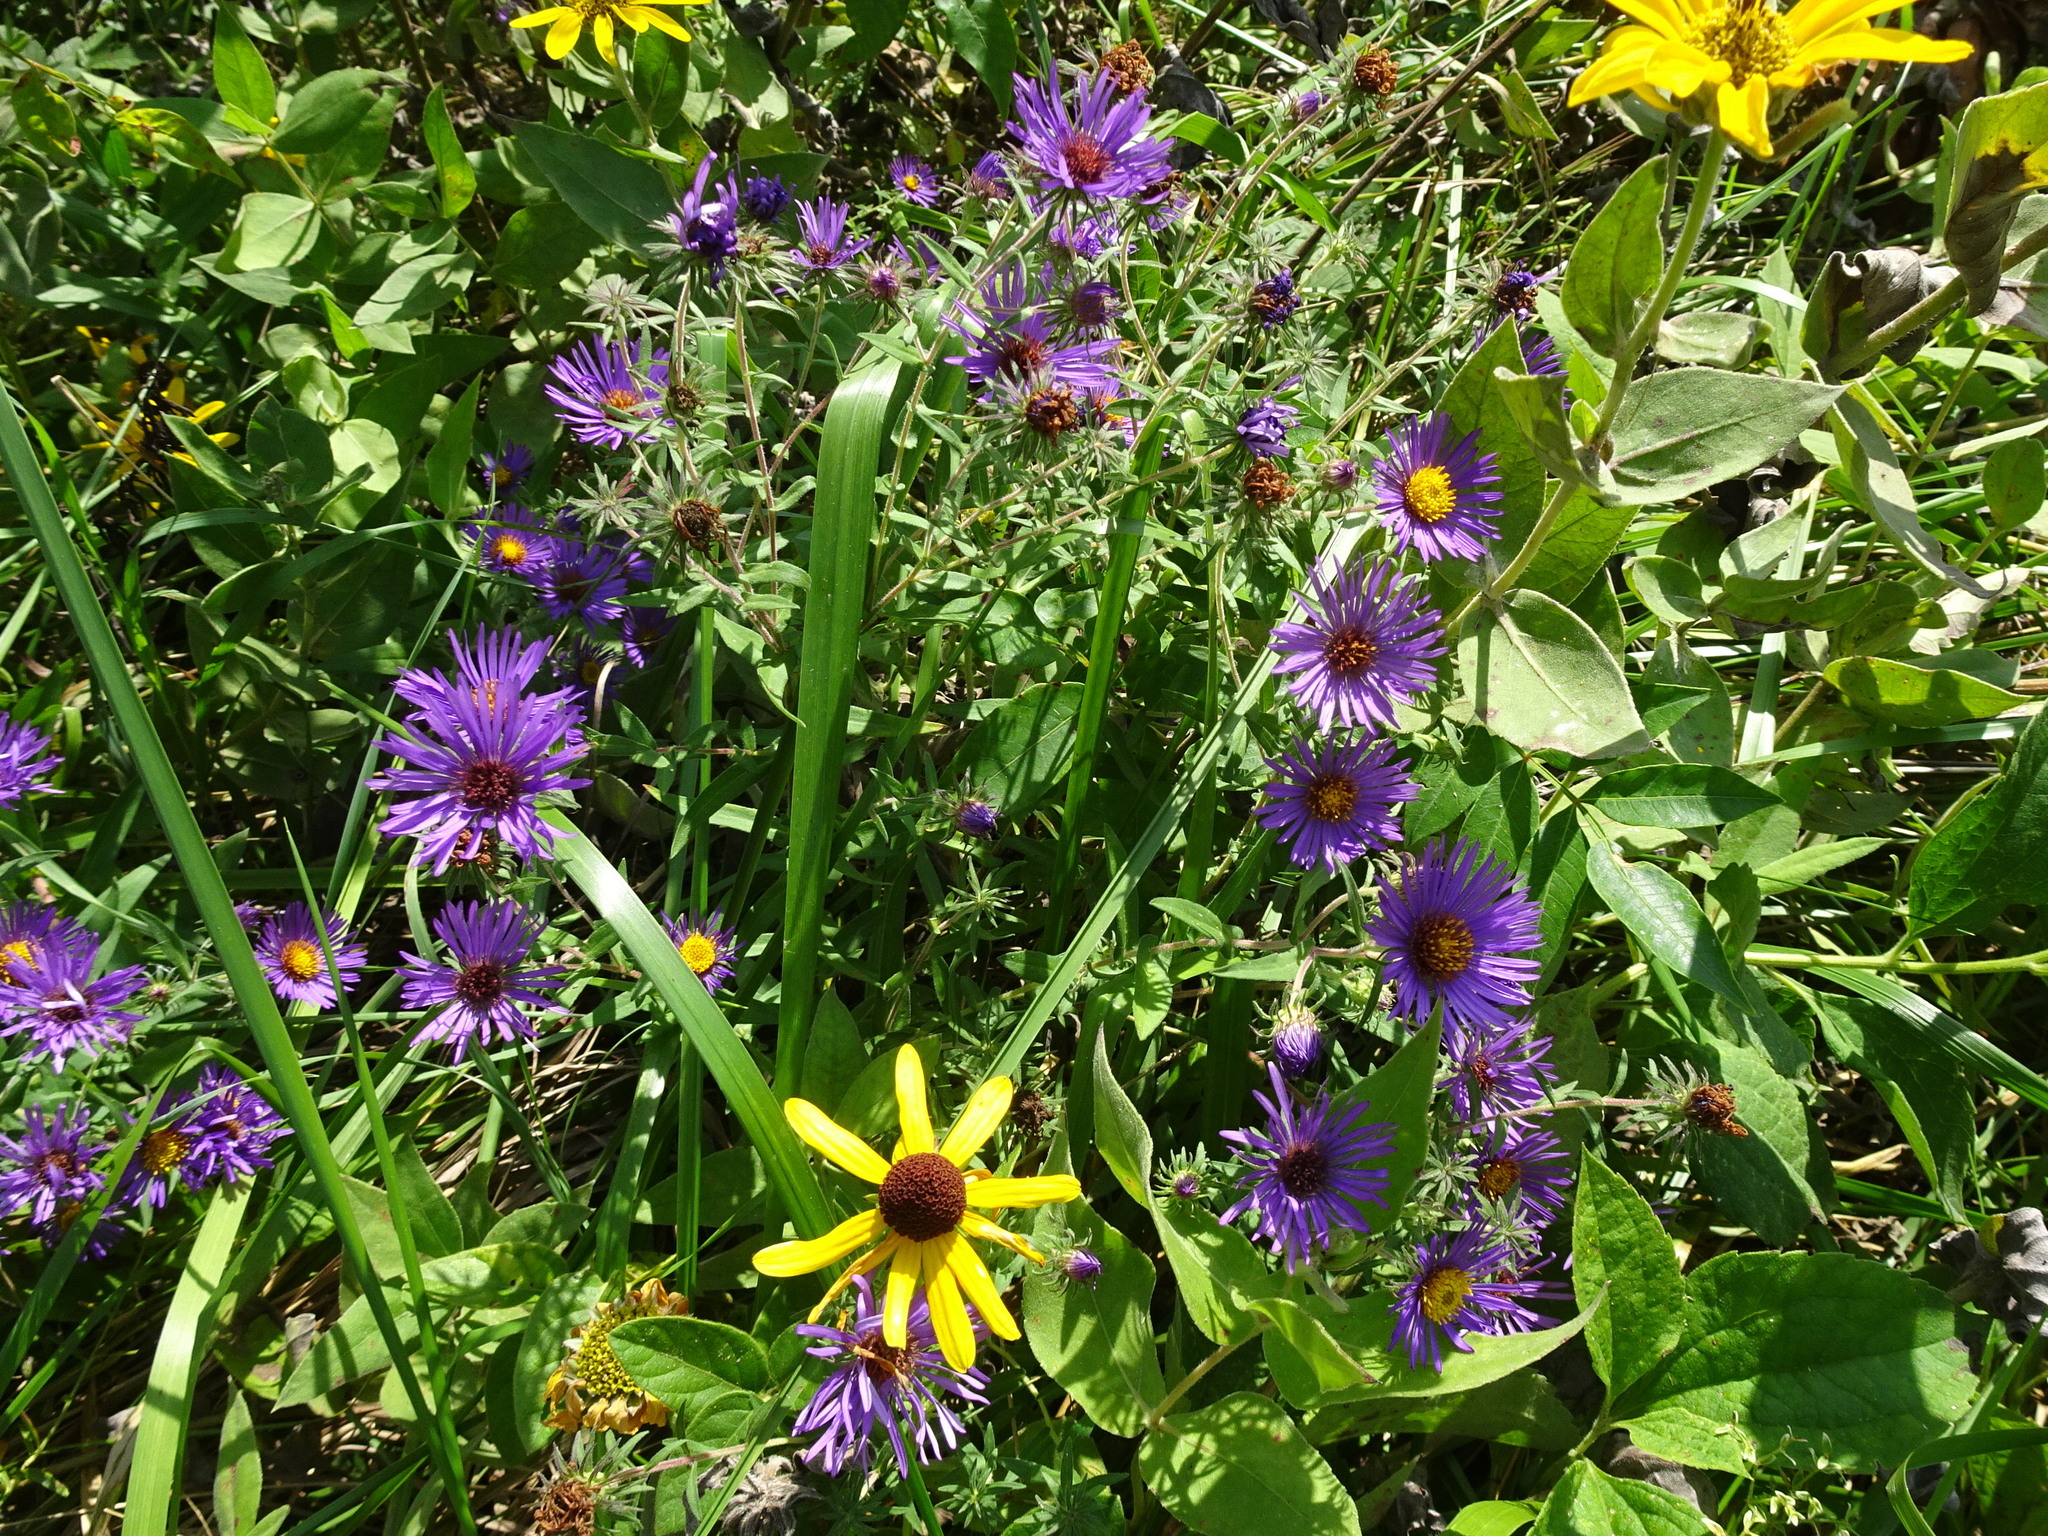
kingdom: Plantae
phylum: Tracheophyta
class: Magnoliopsida
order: Asterales
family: Asteraceae
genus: Symphyotrichum
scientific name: Symphyotrichum novae-angliae
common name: Michaelmas daisy
